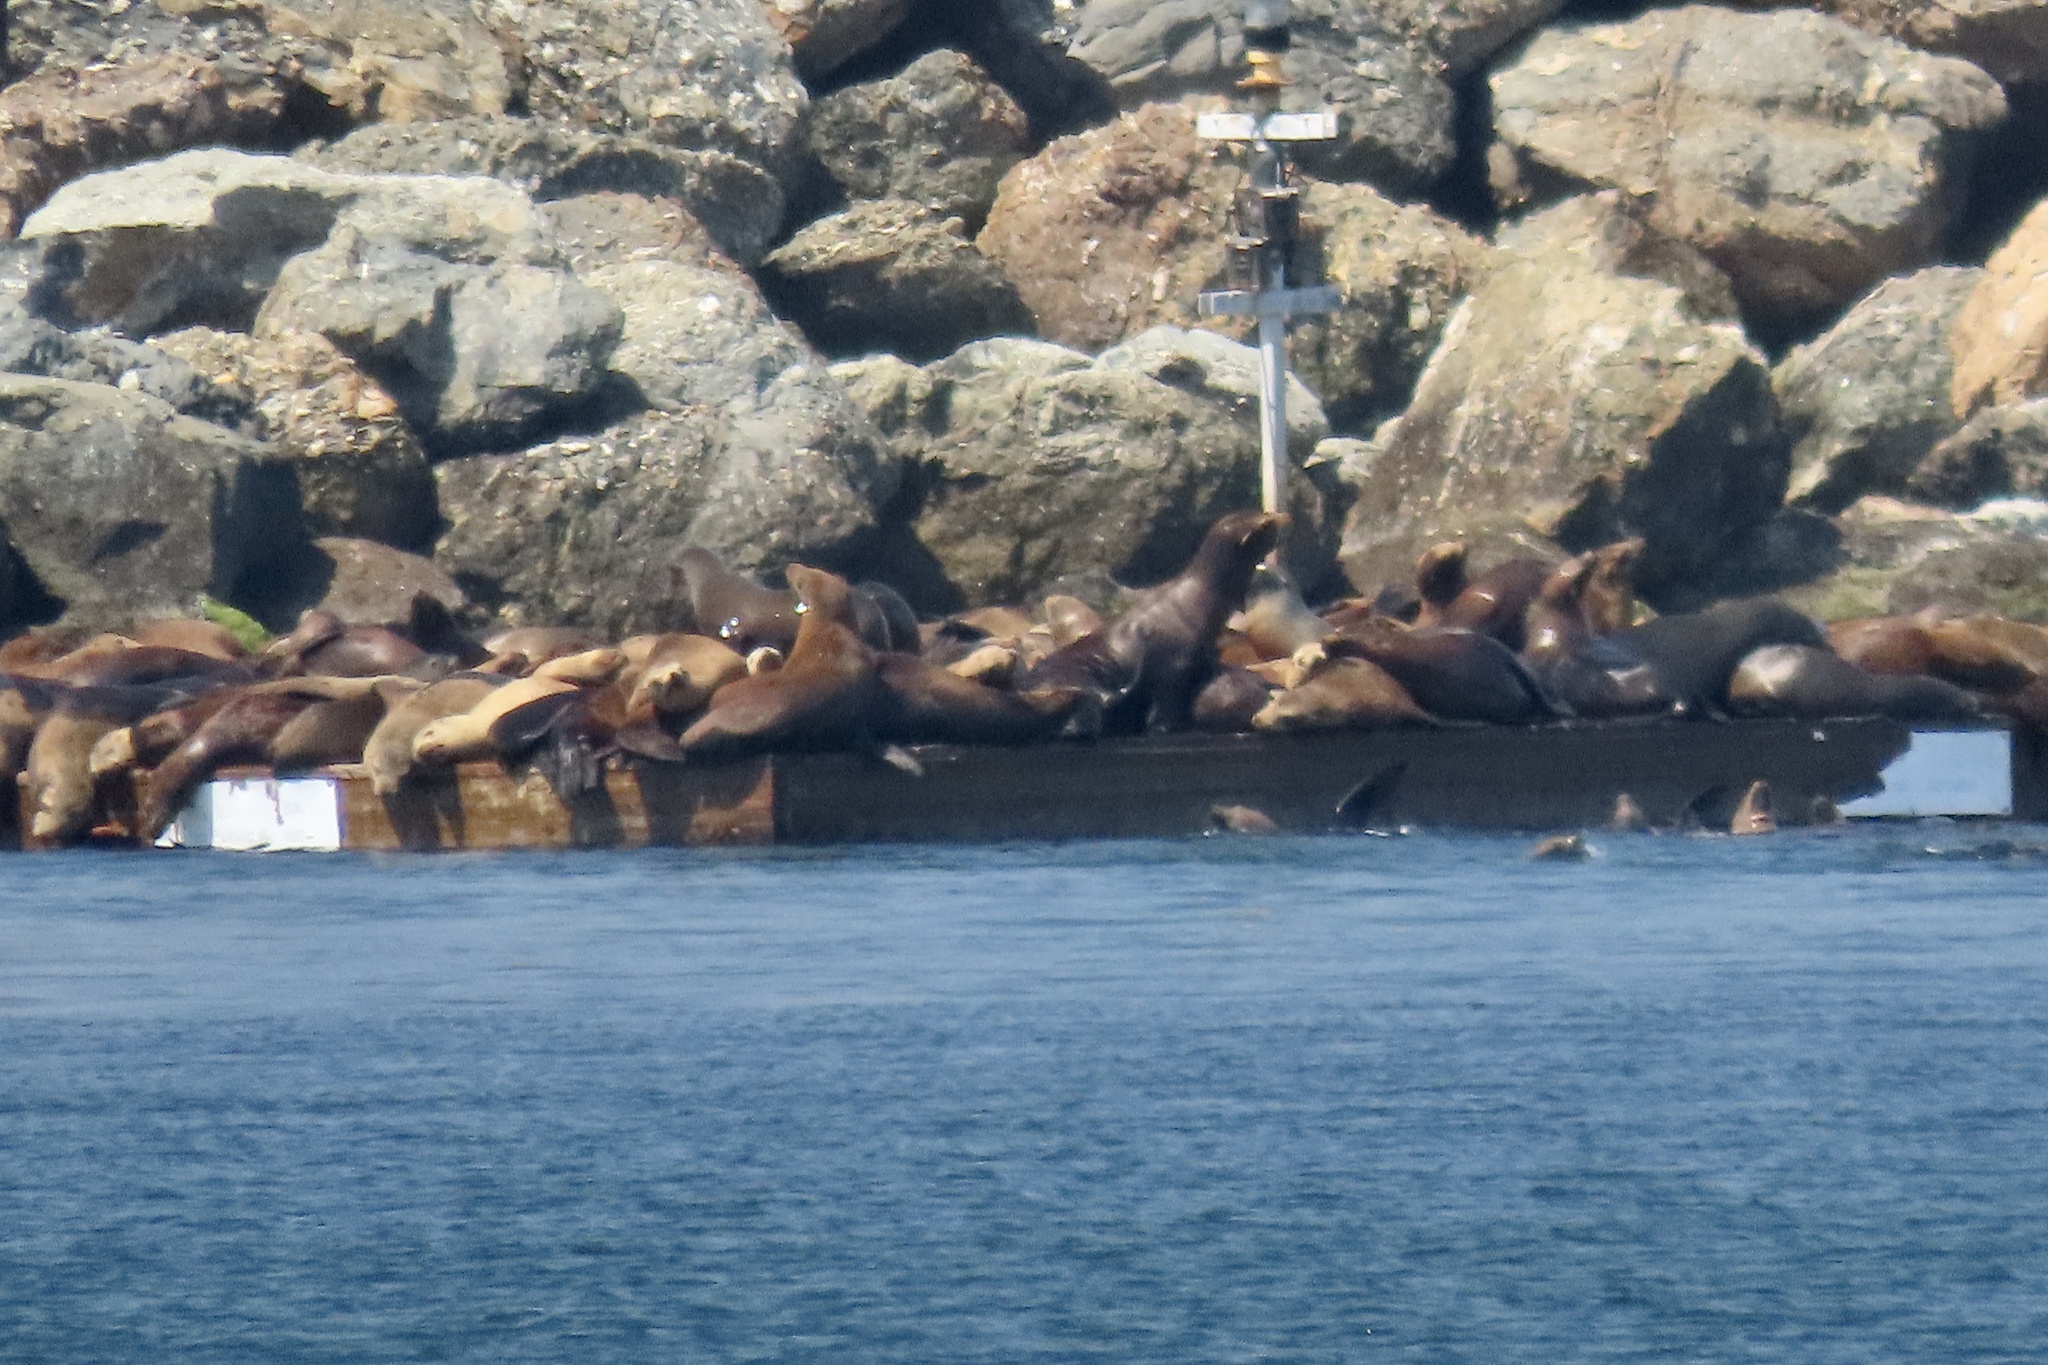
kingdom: Animalia
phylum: Chordata
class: Mammalia
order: Carnivora
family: Otariidae
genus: Zalophus
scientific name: Zalophus californianus
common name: California sea lion
